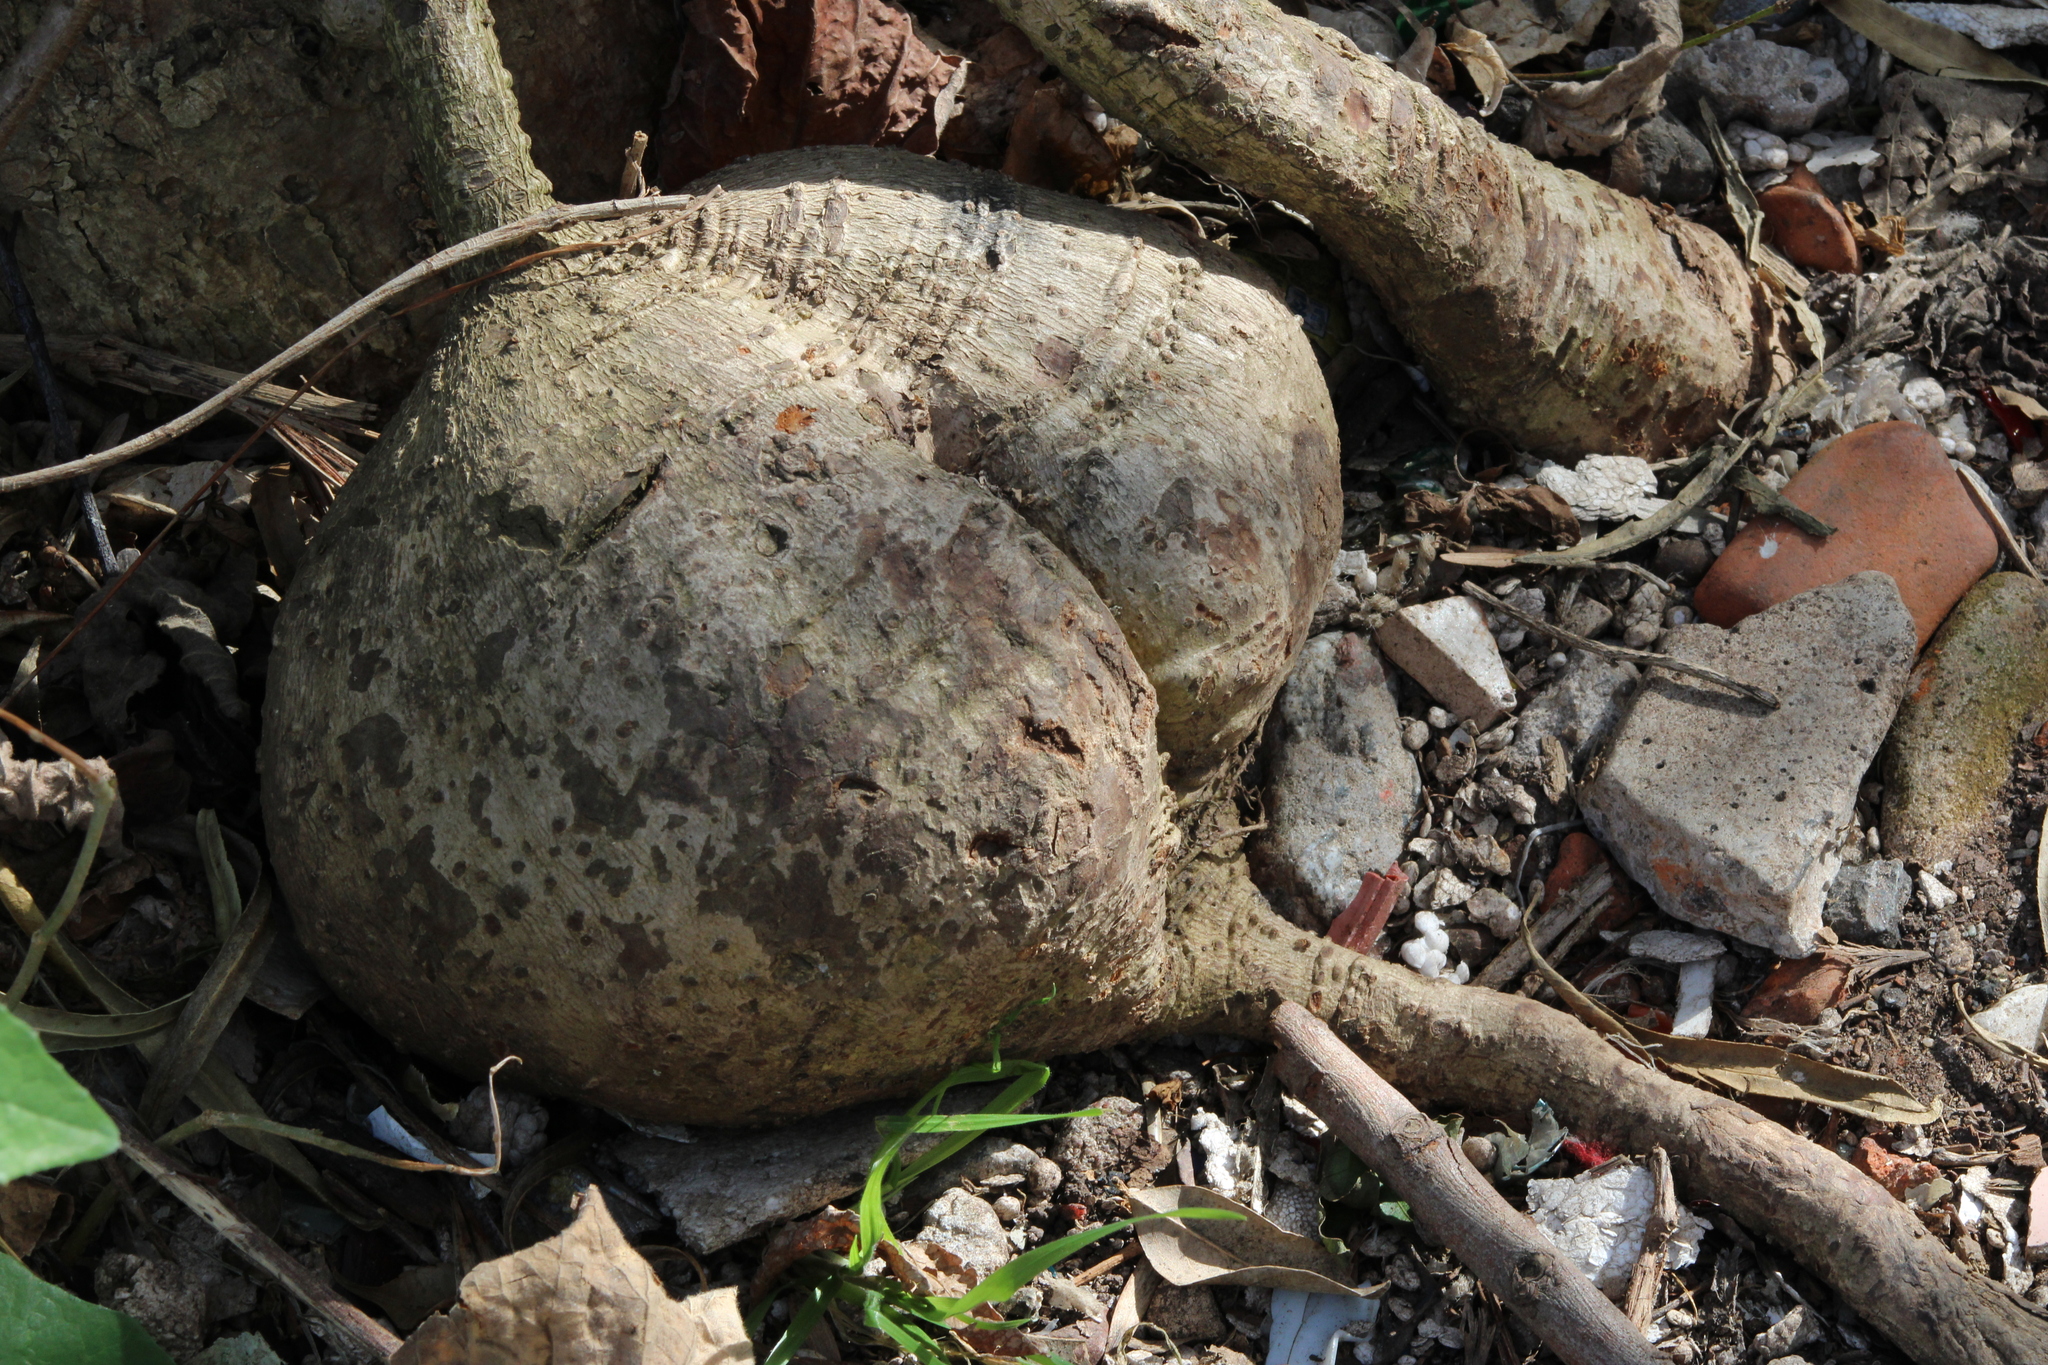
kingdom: Plantae
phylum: Tracheophyta
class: Magnoliopsida
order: Malpighiales
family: Malpighiaceae
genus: Stigmaphyllon
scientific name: Stigmaphyllon bonariense
